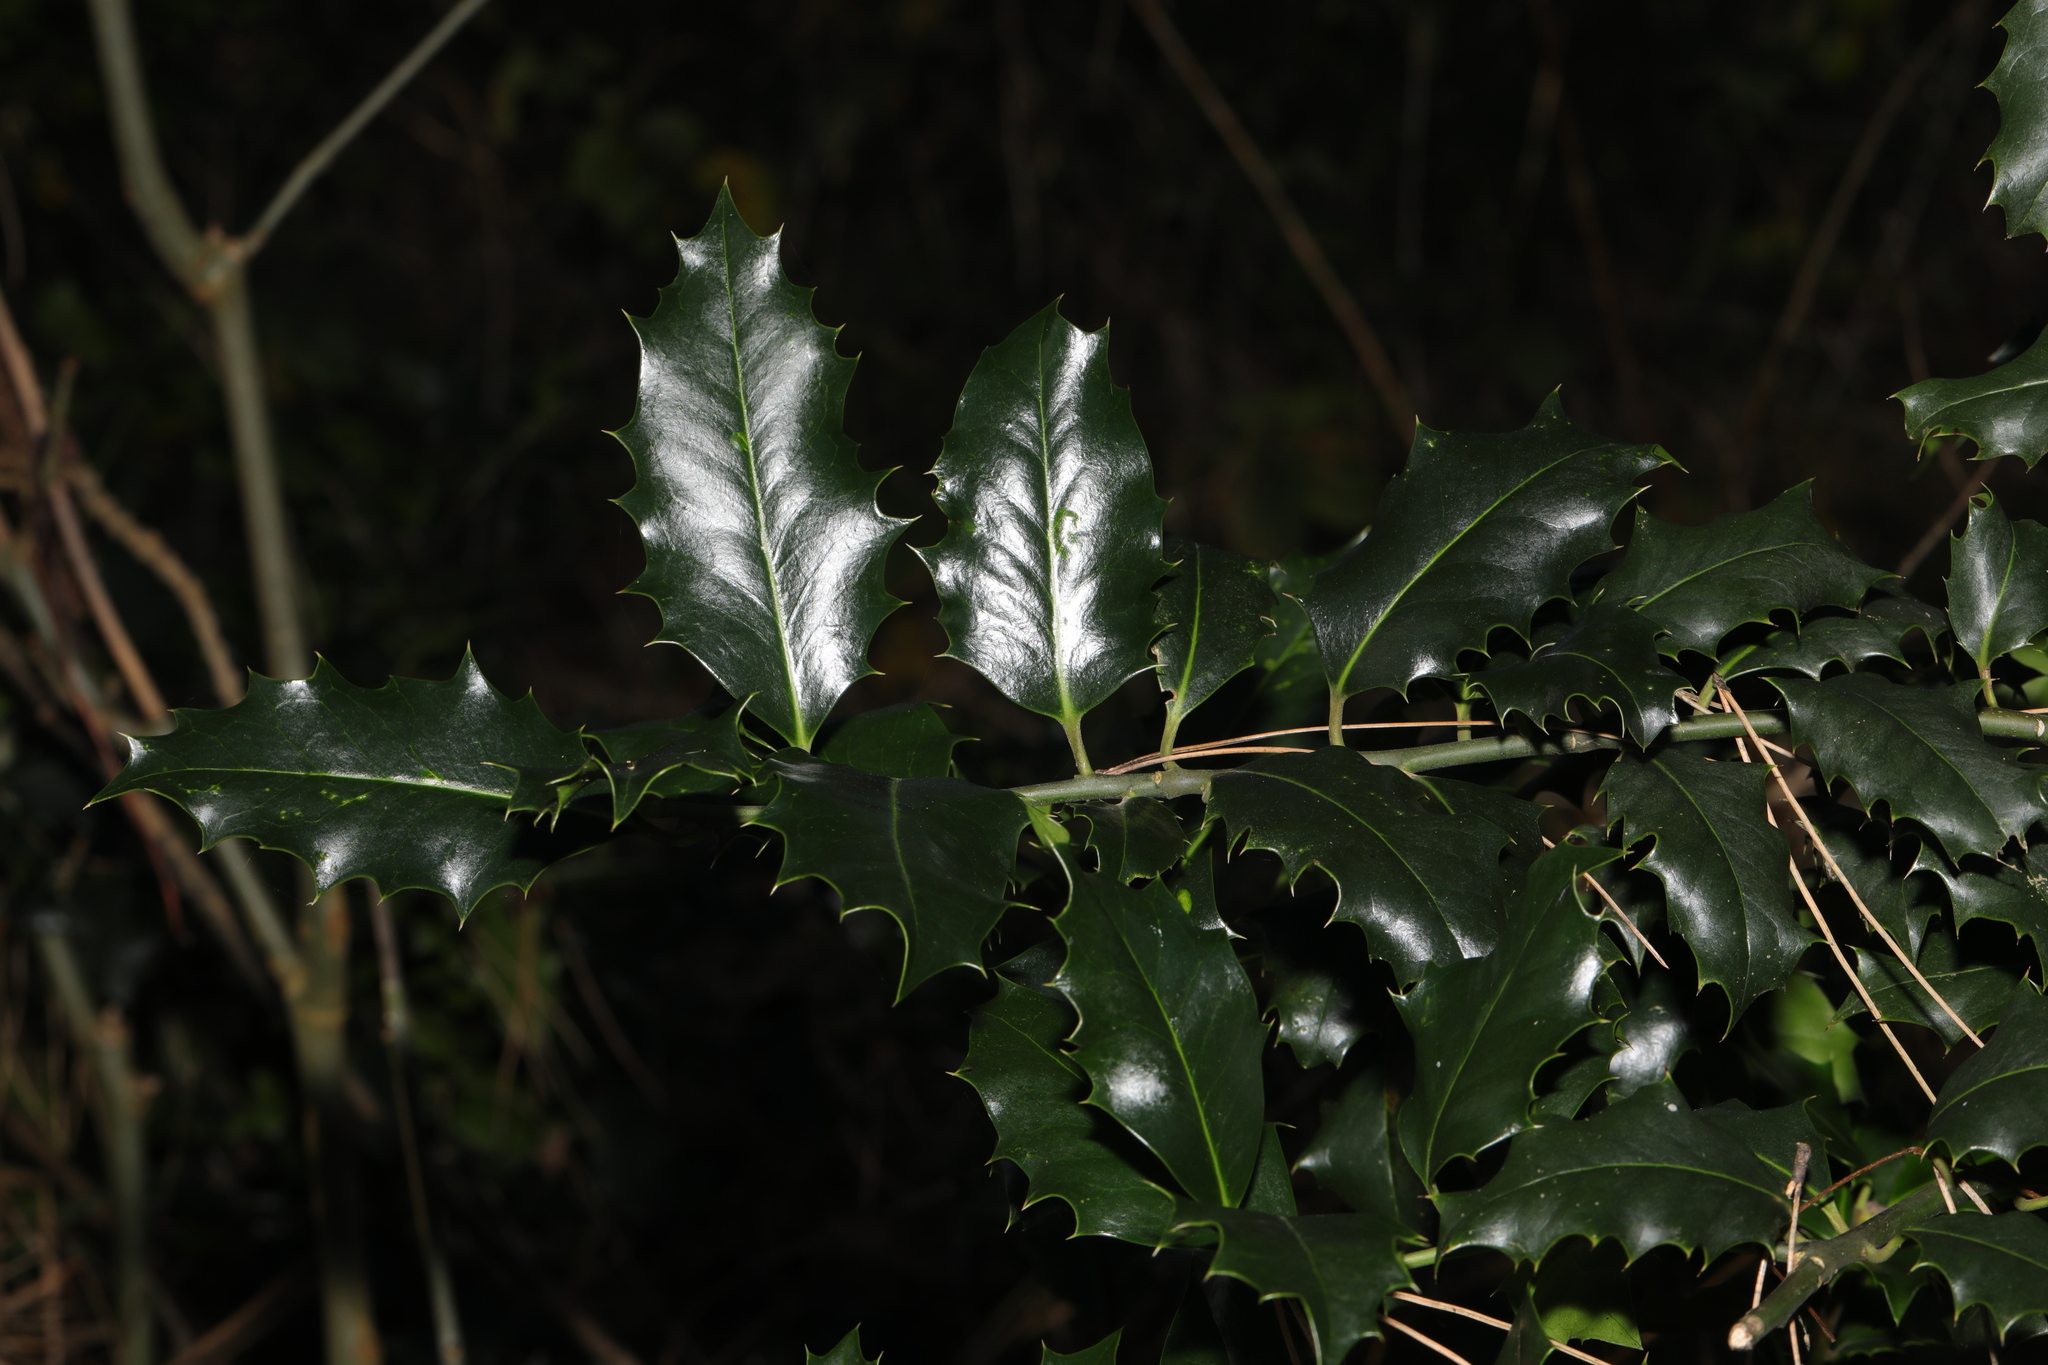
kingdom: Plantae
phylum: Tracheophyta
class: Magnoliopsida
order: Aquifoliales
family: Aquifoliaceae
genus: Ilex
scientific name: Ilex aquifolium
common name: English holly
